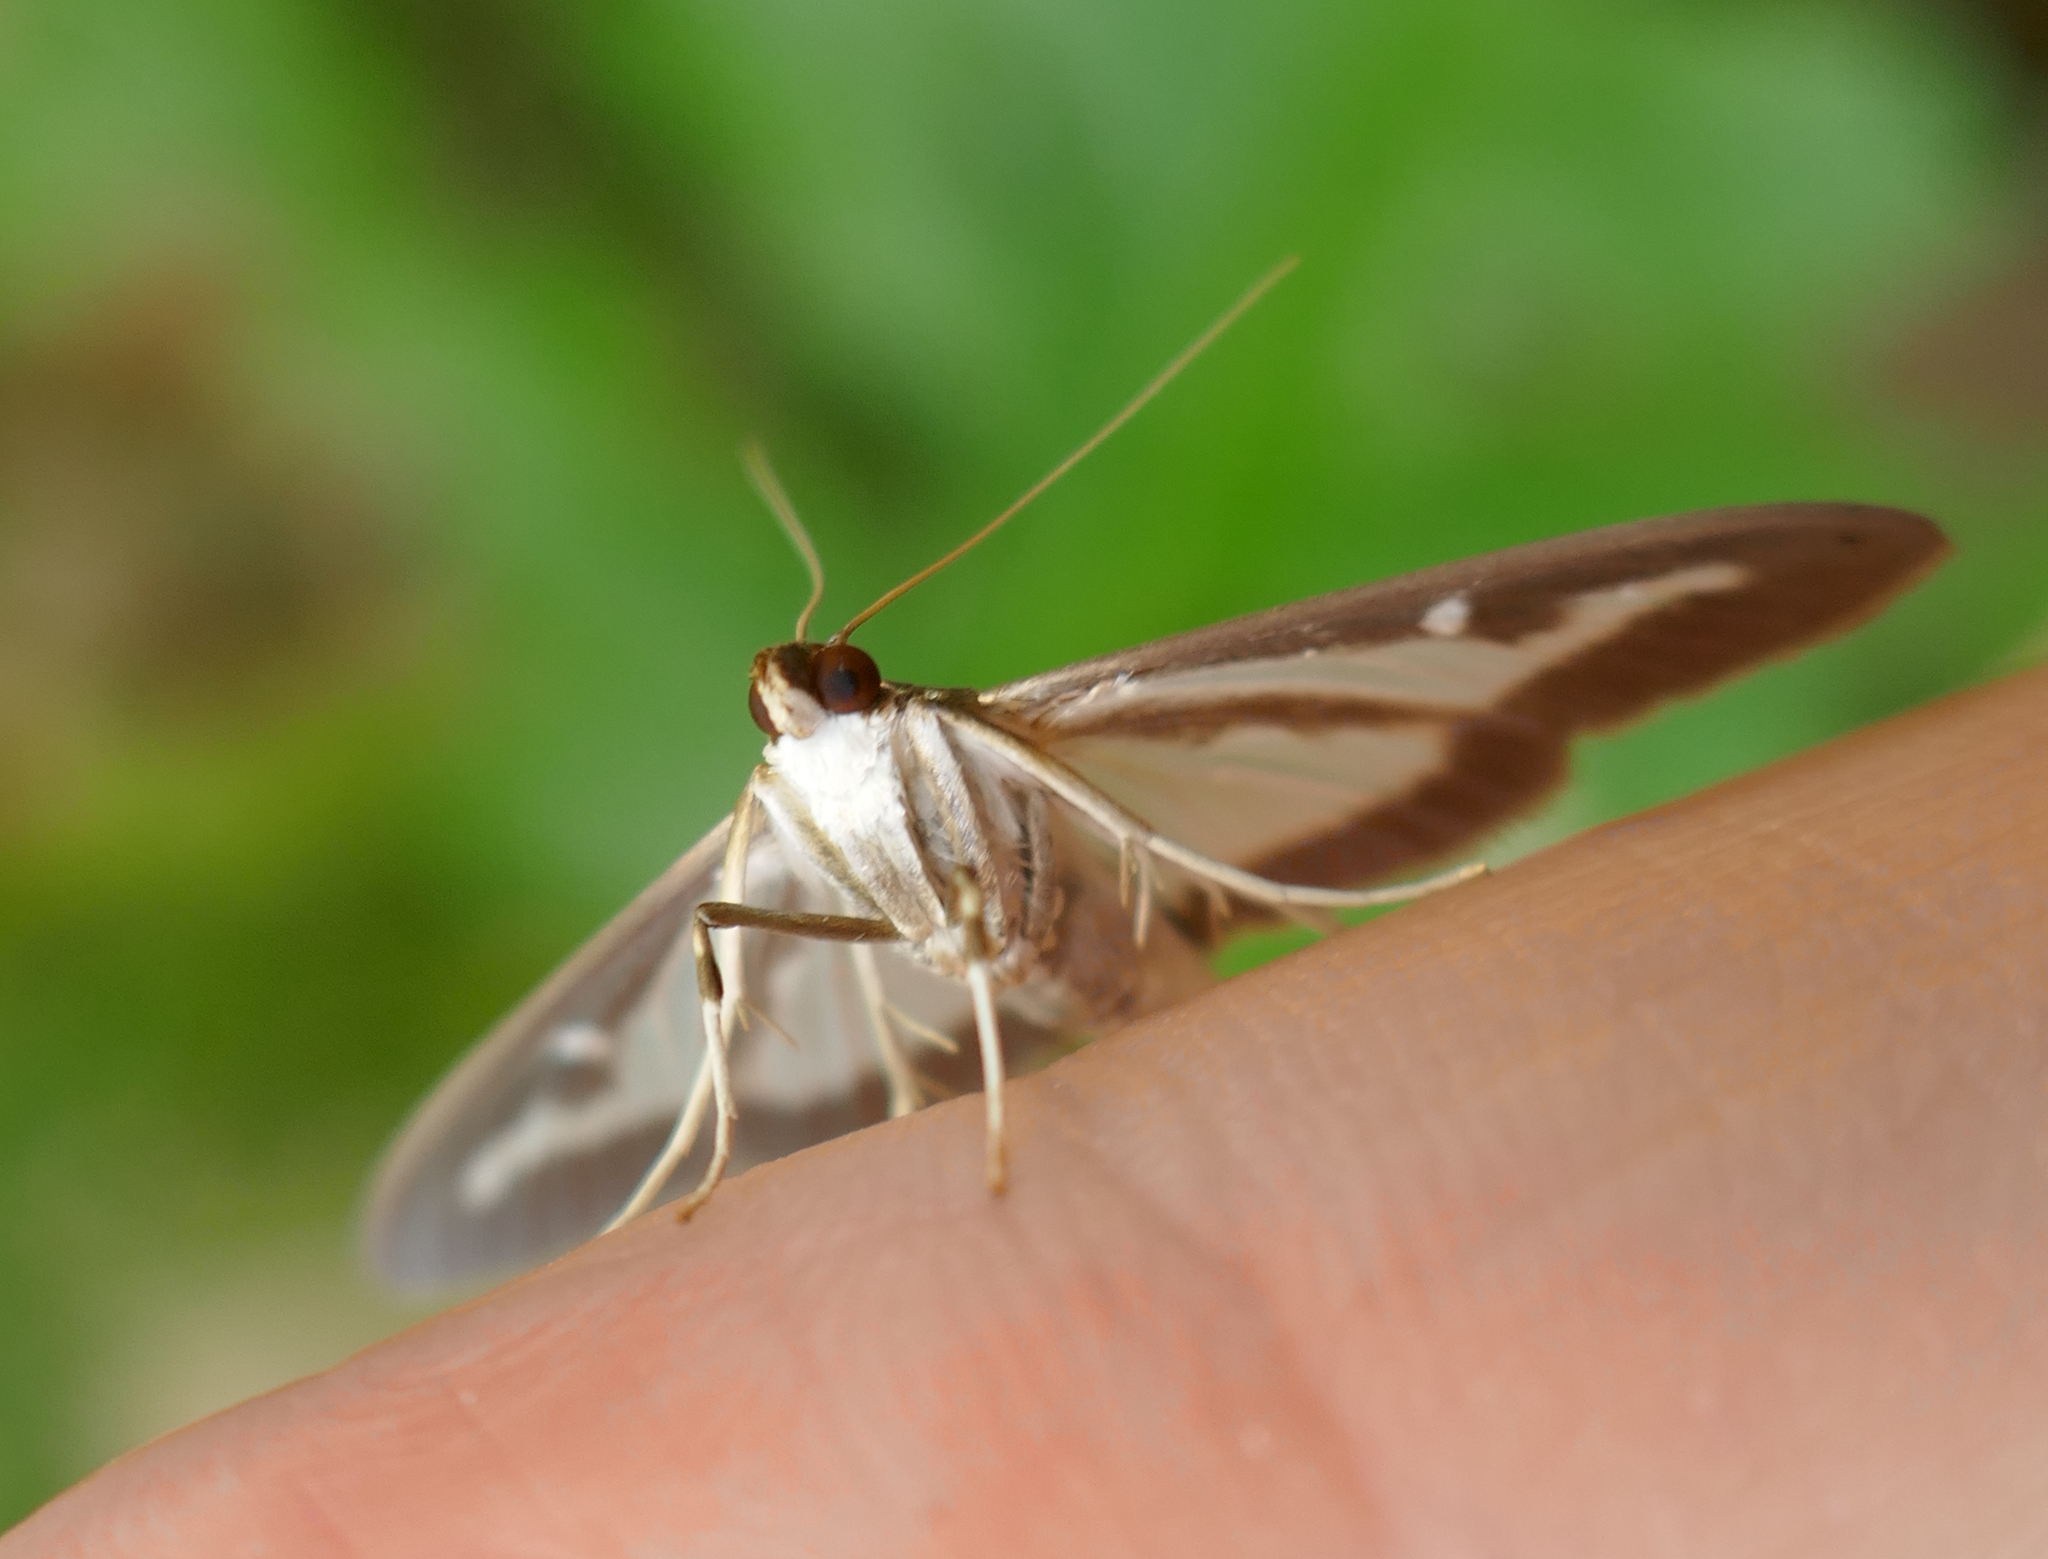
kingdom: Animalia
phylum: Arthropoda
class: Insecta
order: Lepidoptera
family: Crambidae
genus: Cydalima
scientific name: Cydalima perspectalis
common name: Box tree moth
